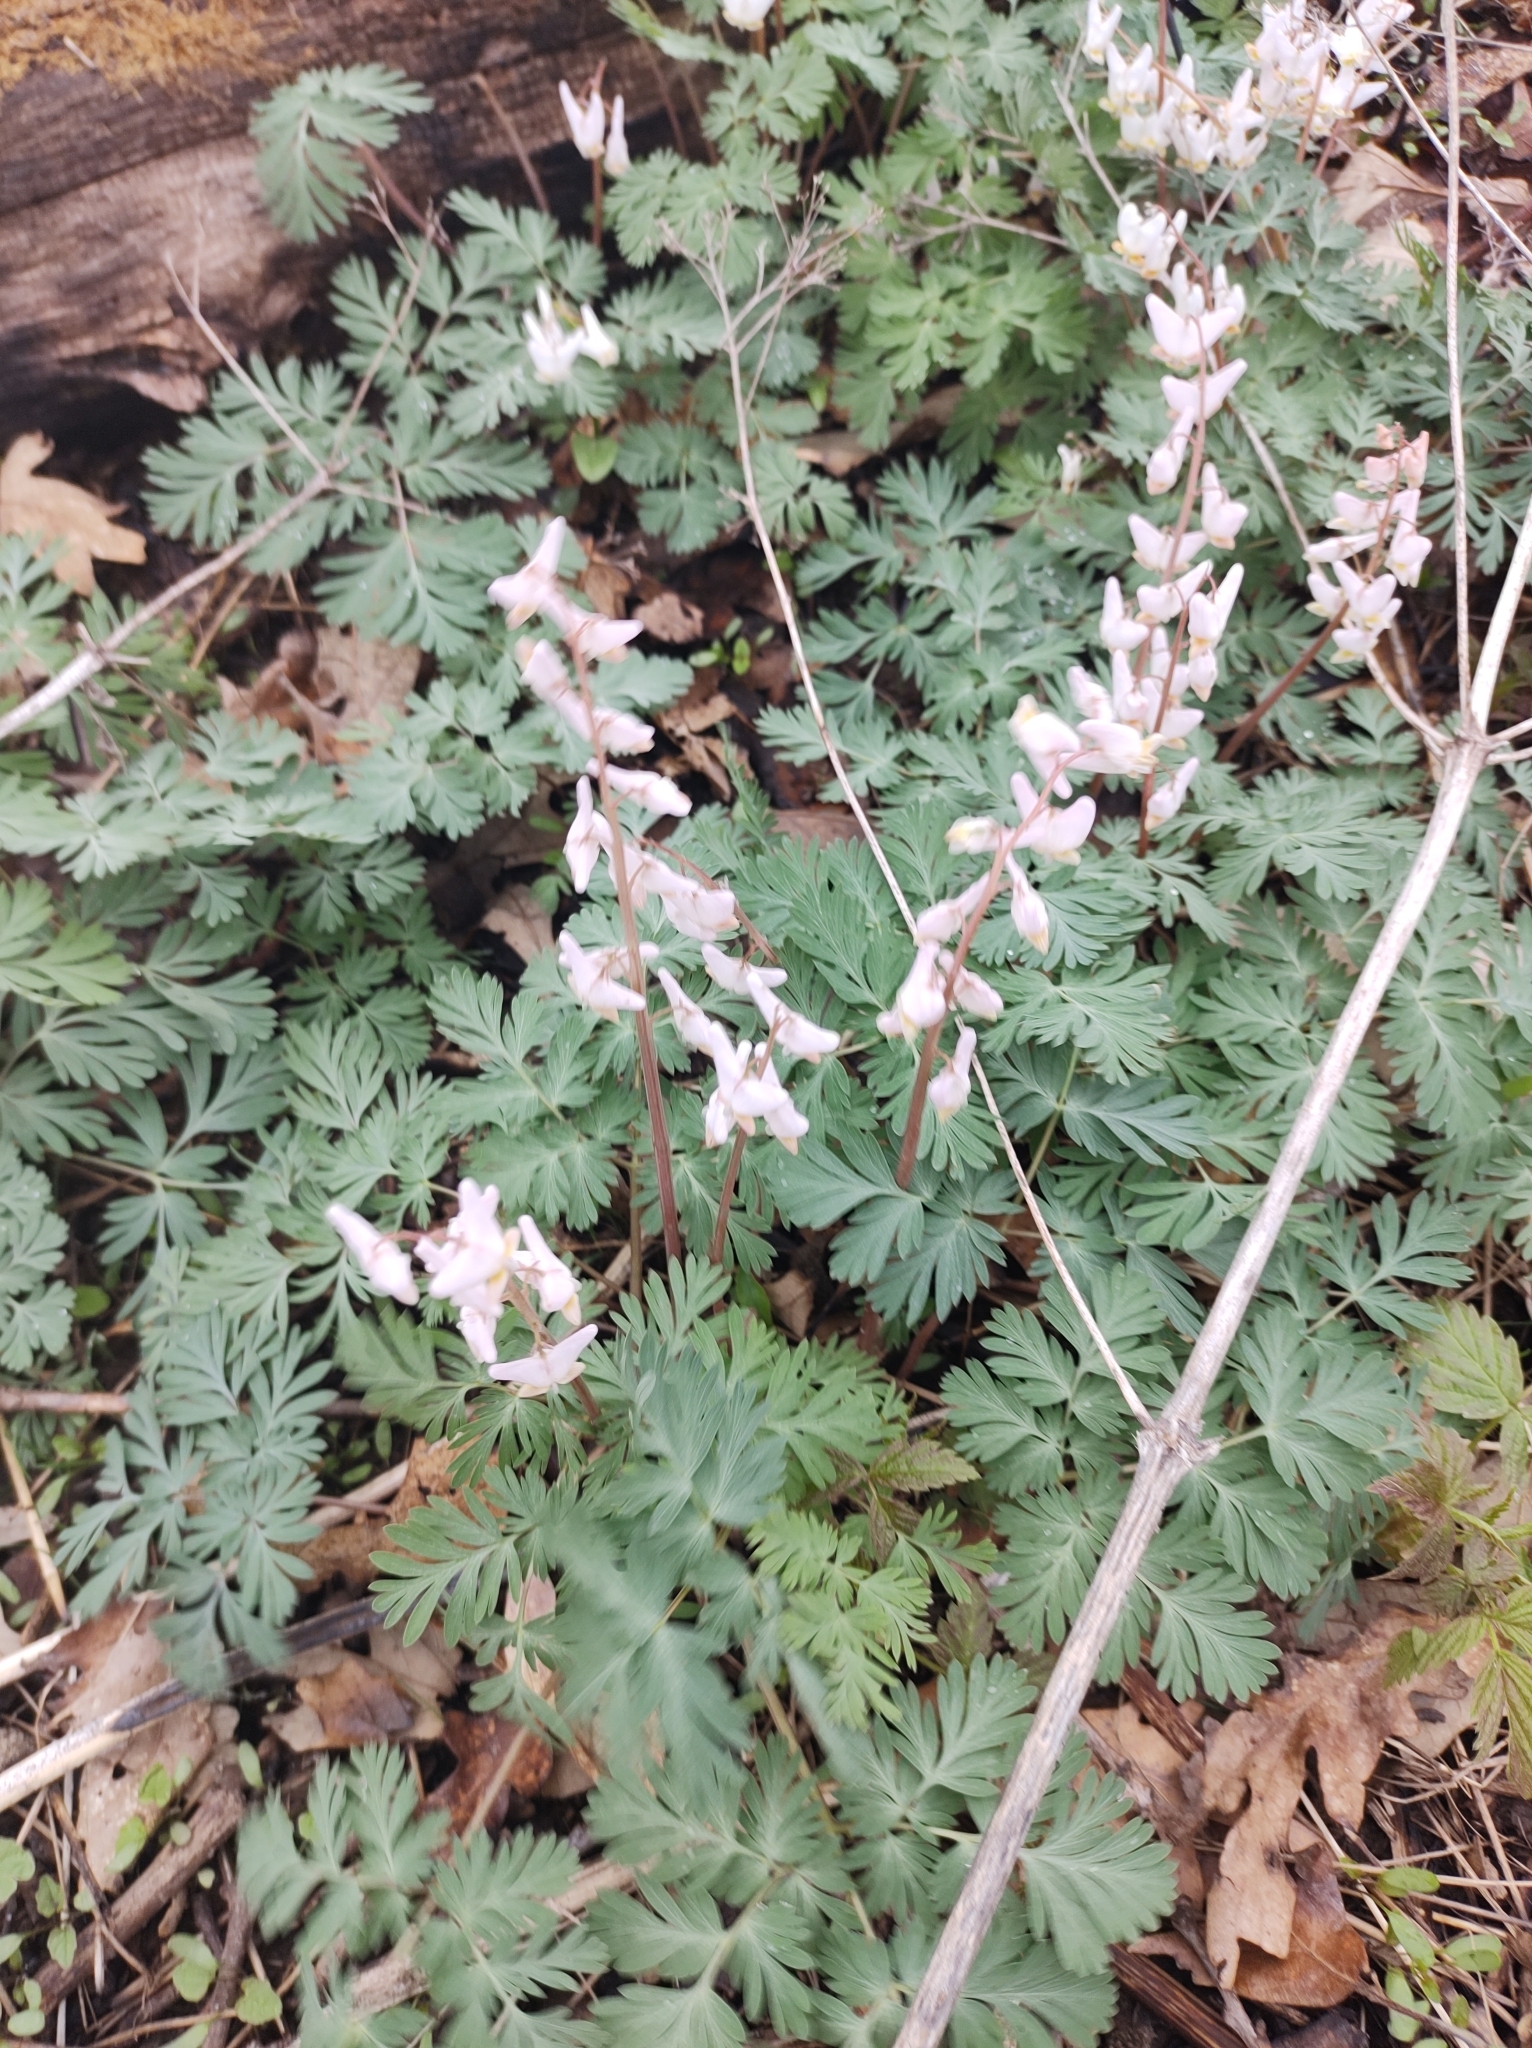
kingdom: Plantae
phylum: Tracheophyta
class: Magnoliopsida
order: Ranunculales
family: Papaveraceae
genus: Dicentra
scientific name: Dicentra cucullaria
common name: Dutchman's breeches
